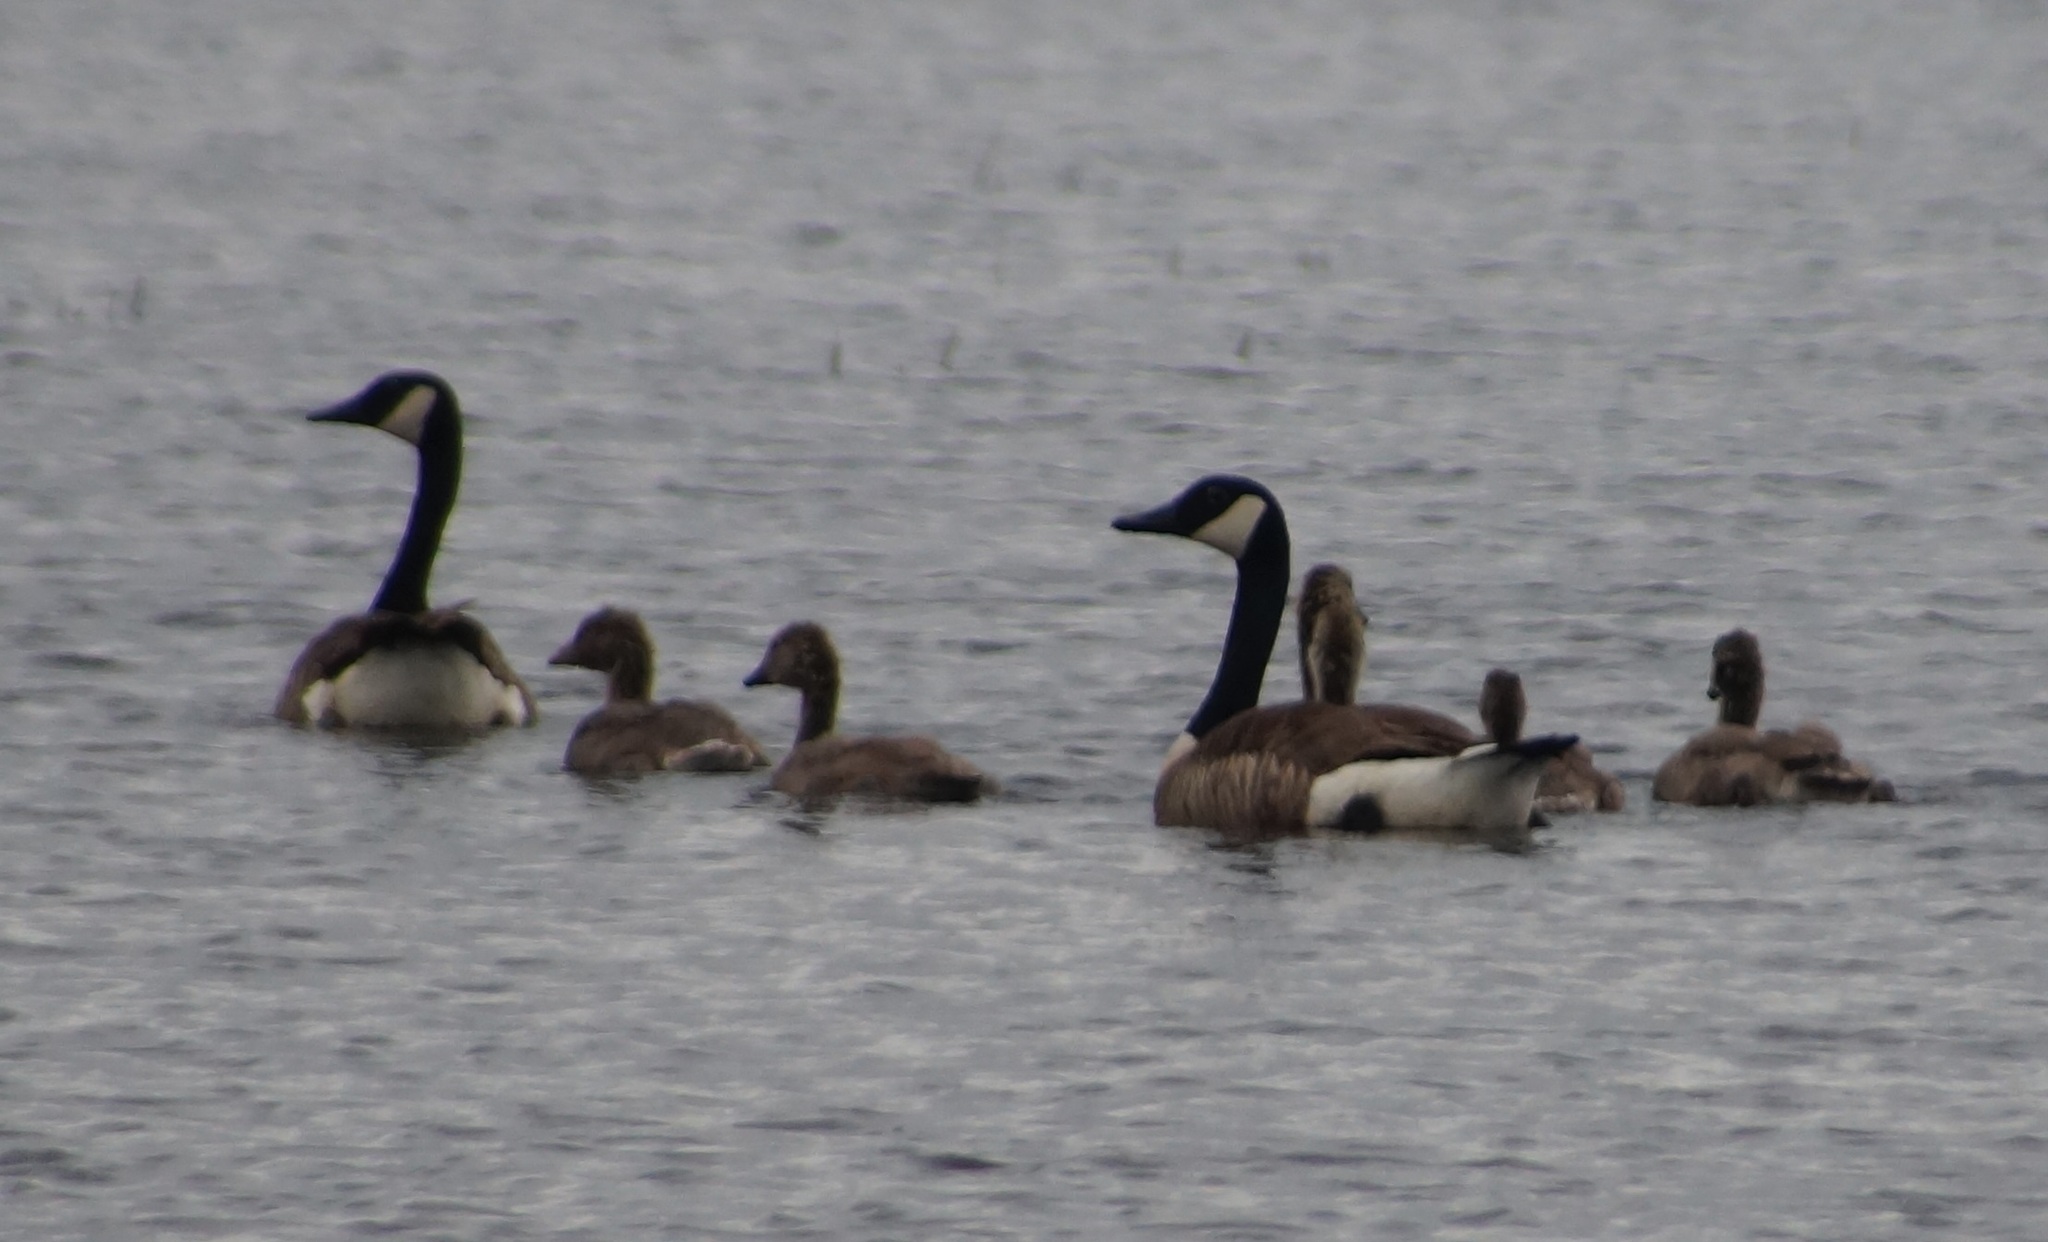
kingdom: Animalia
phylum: Chordata
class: Aves
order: Anseriformes
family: Anatidae
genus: Branta
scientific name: Branta canadensis
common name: Canada goose
